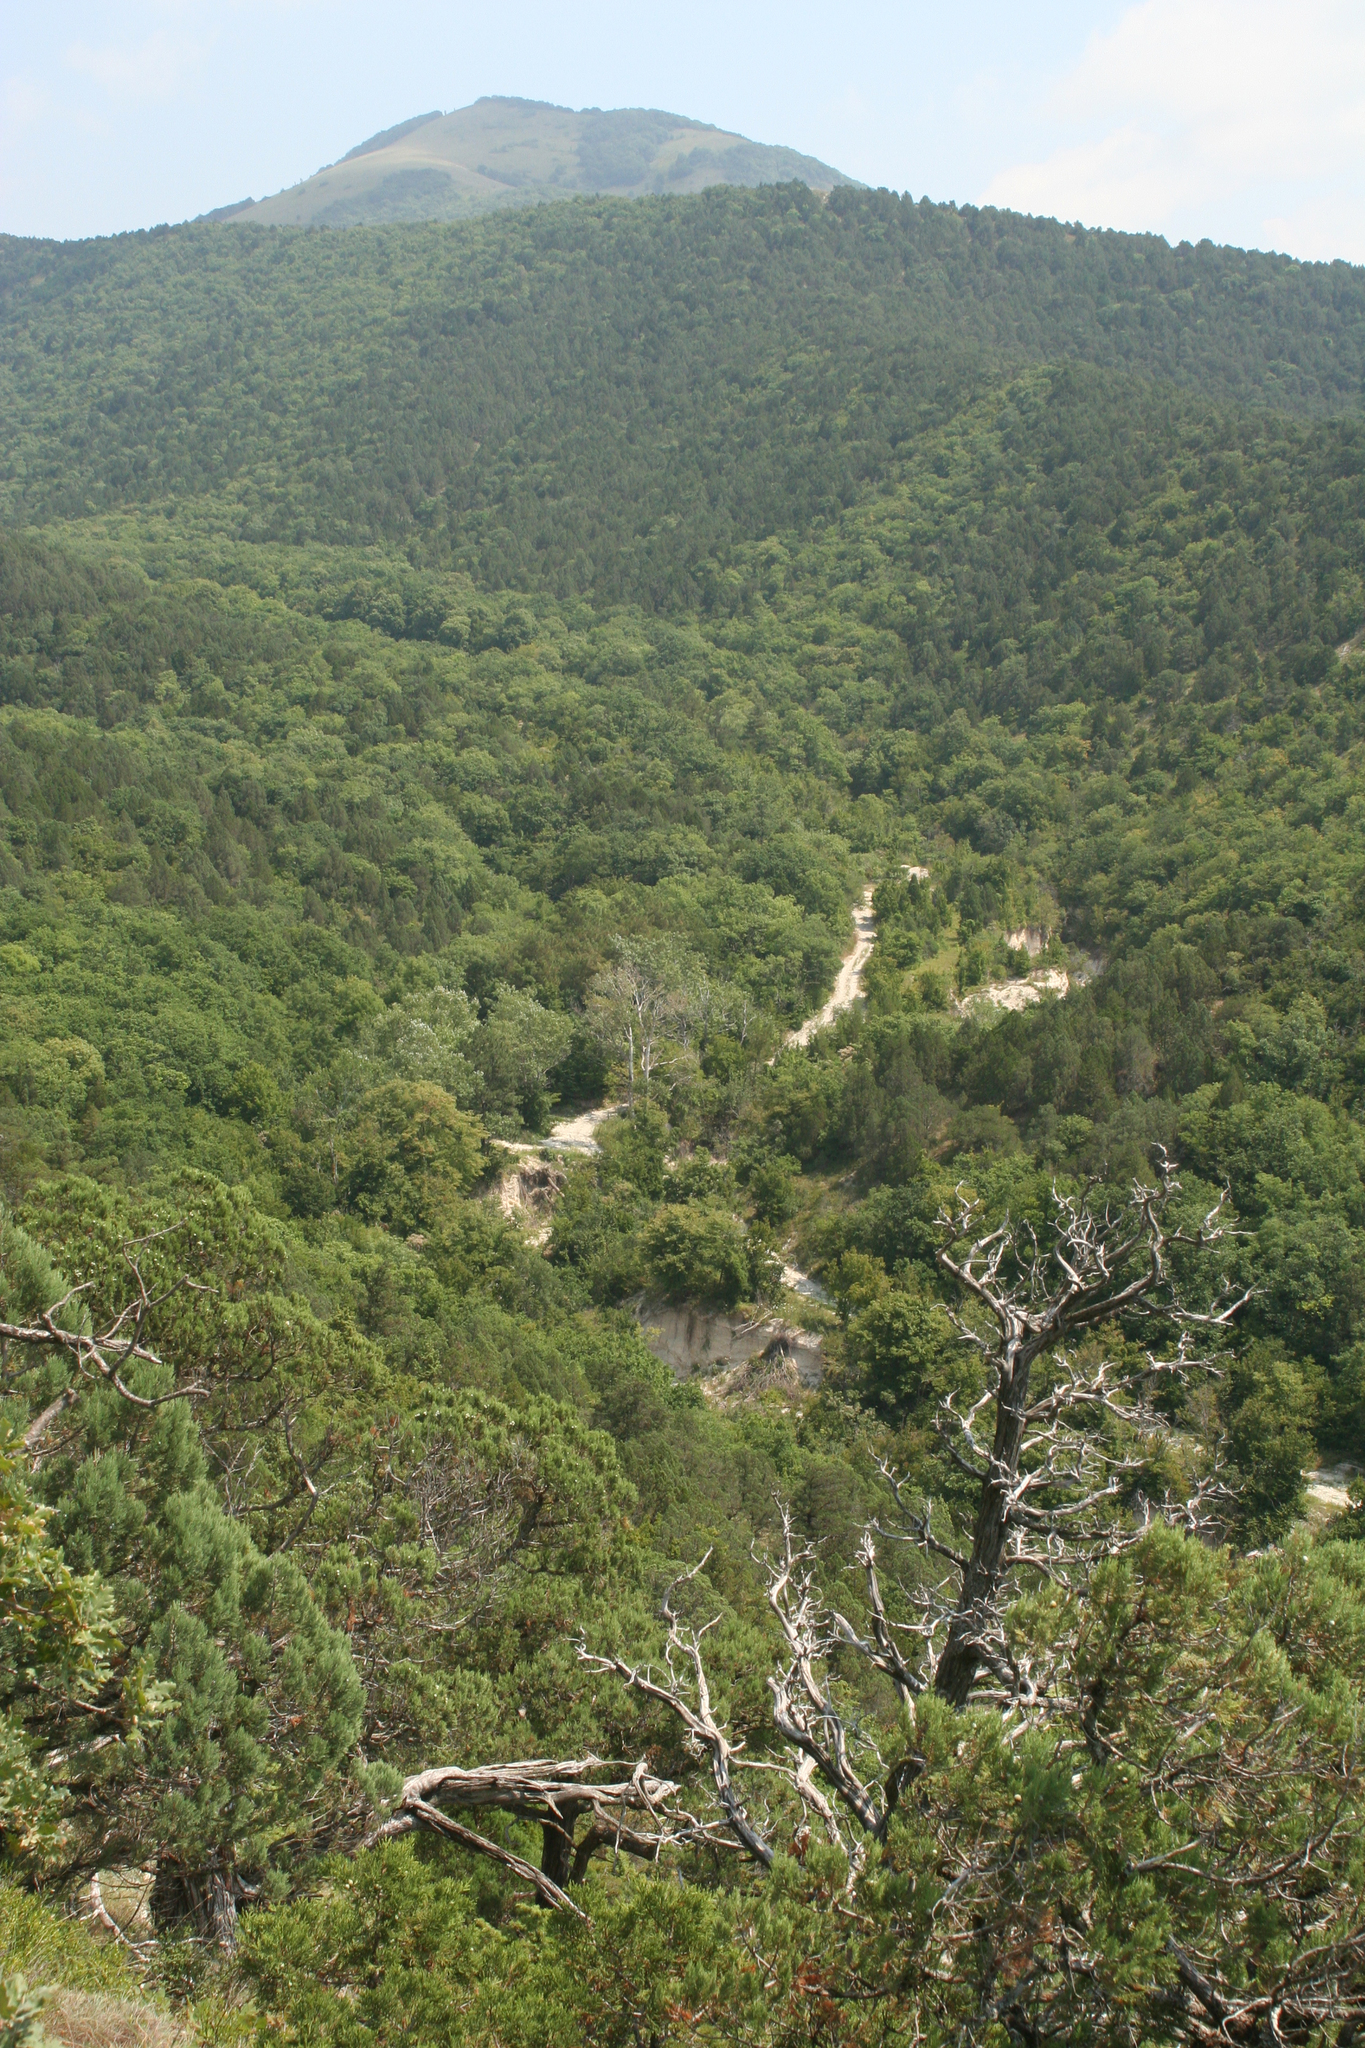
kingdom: Plantae
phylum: Tracheophyta
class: Pinopsida
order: Pinales
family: Cupressaceae
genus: Juniperus
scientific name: Juniperus excelsa
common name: Crimean juniper
